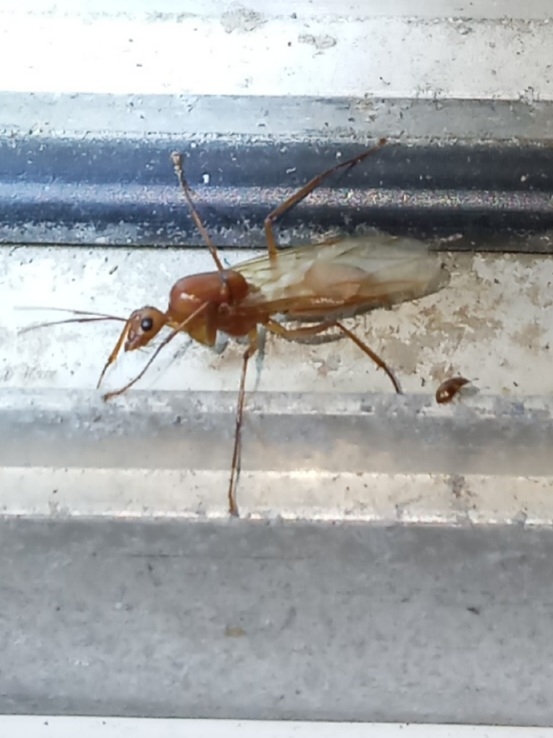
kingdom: Animalia
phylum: Arthropoda
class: Insecta
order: Hymenoptera
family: Formicidae
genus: Camponotus
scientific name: Camponotus castaneus
